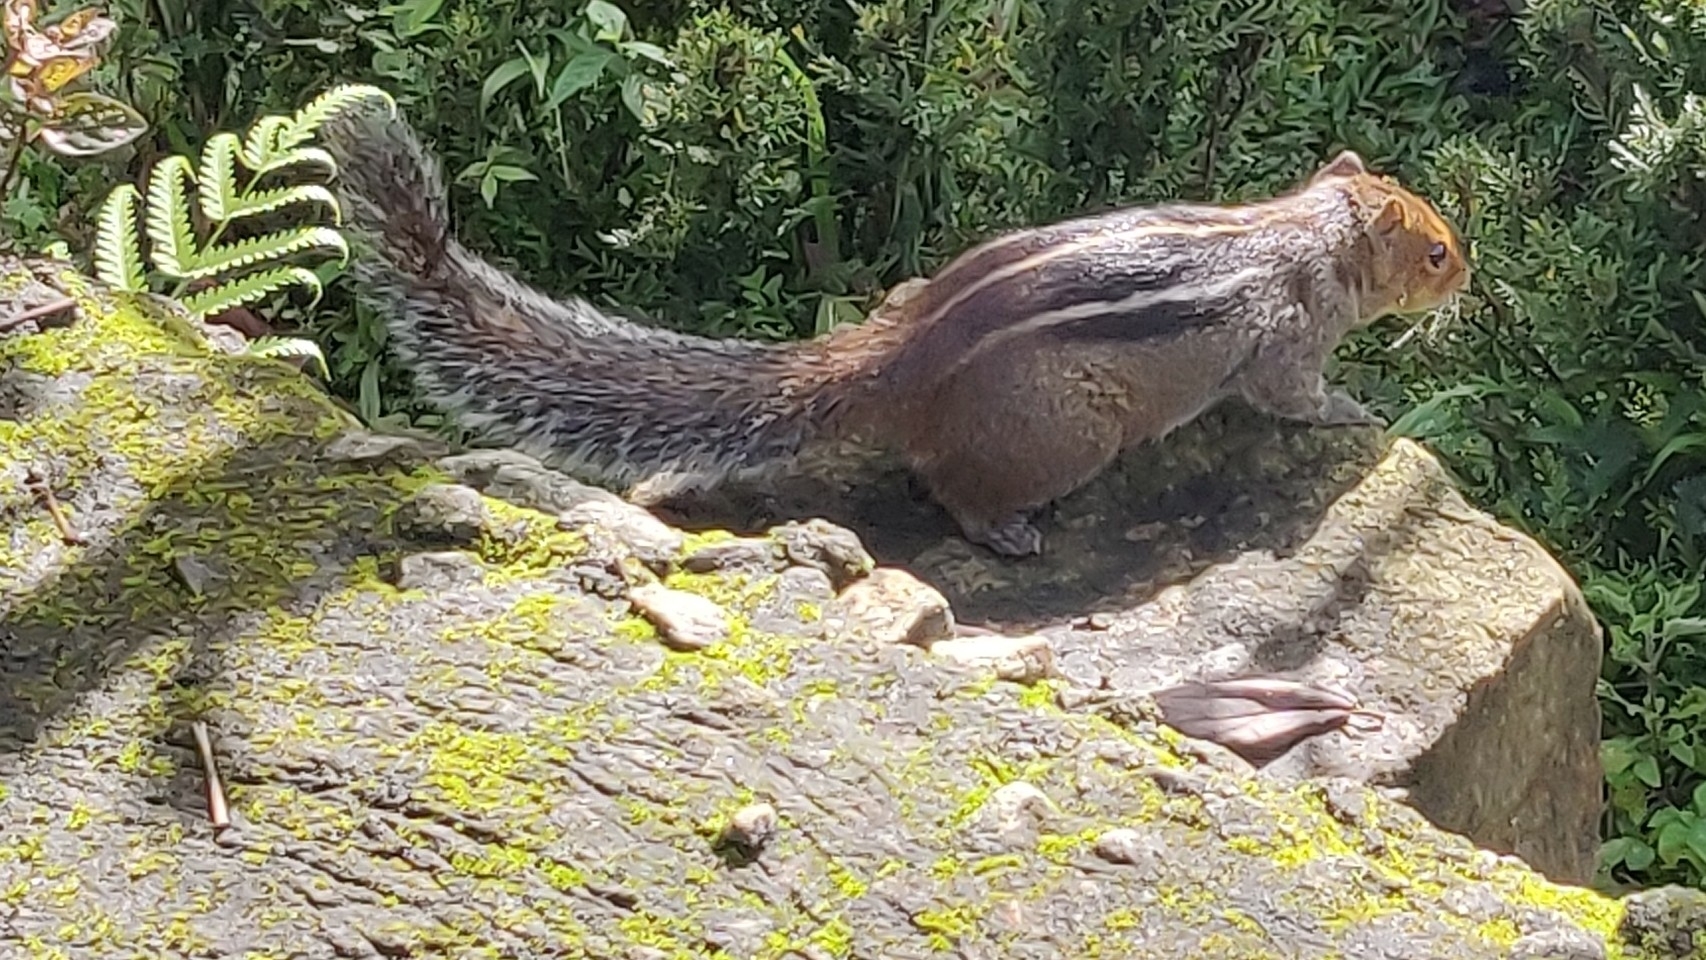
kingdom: Animalia
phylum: Chordata
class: Mammalia
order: Rodentia
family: Sciuridae
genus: Funambulus
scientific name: Funambulus tristriatus
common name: Jungle palm squirrel
